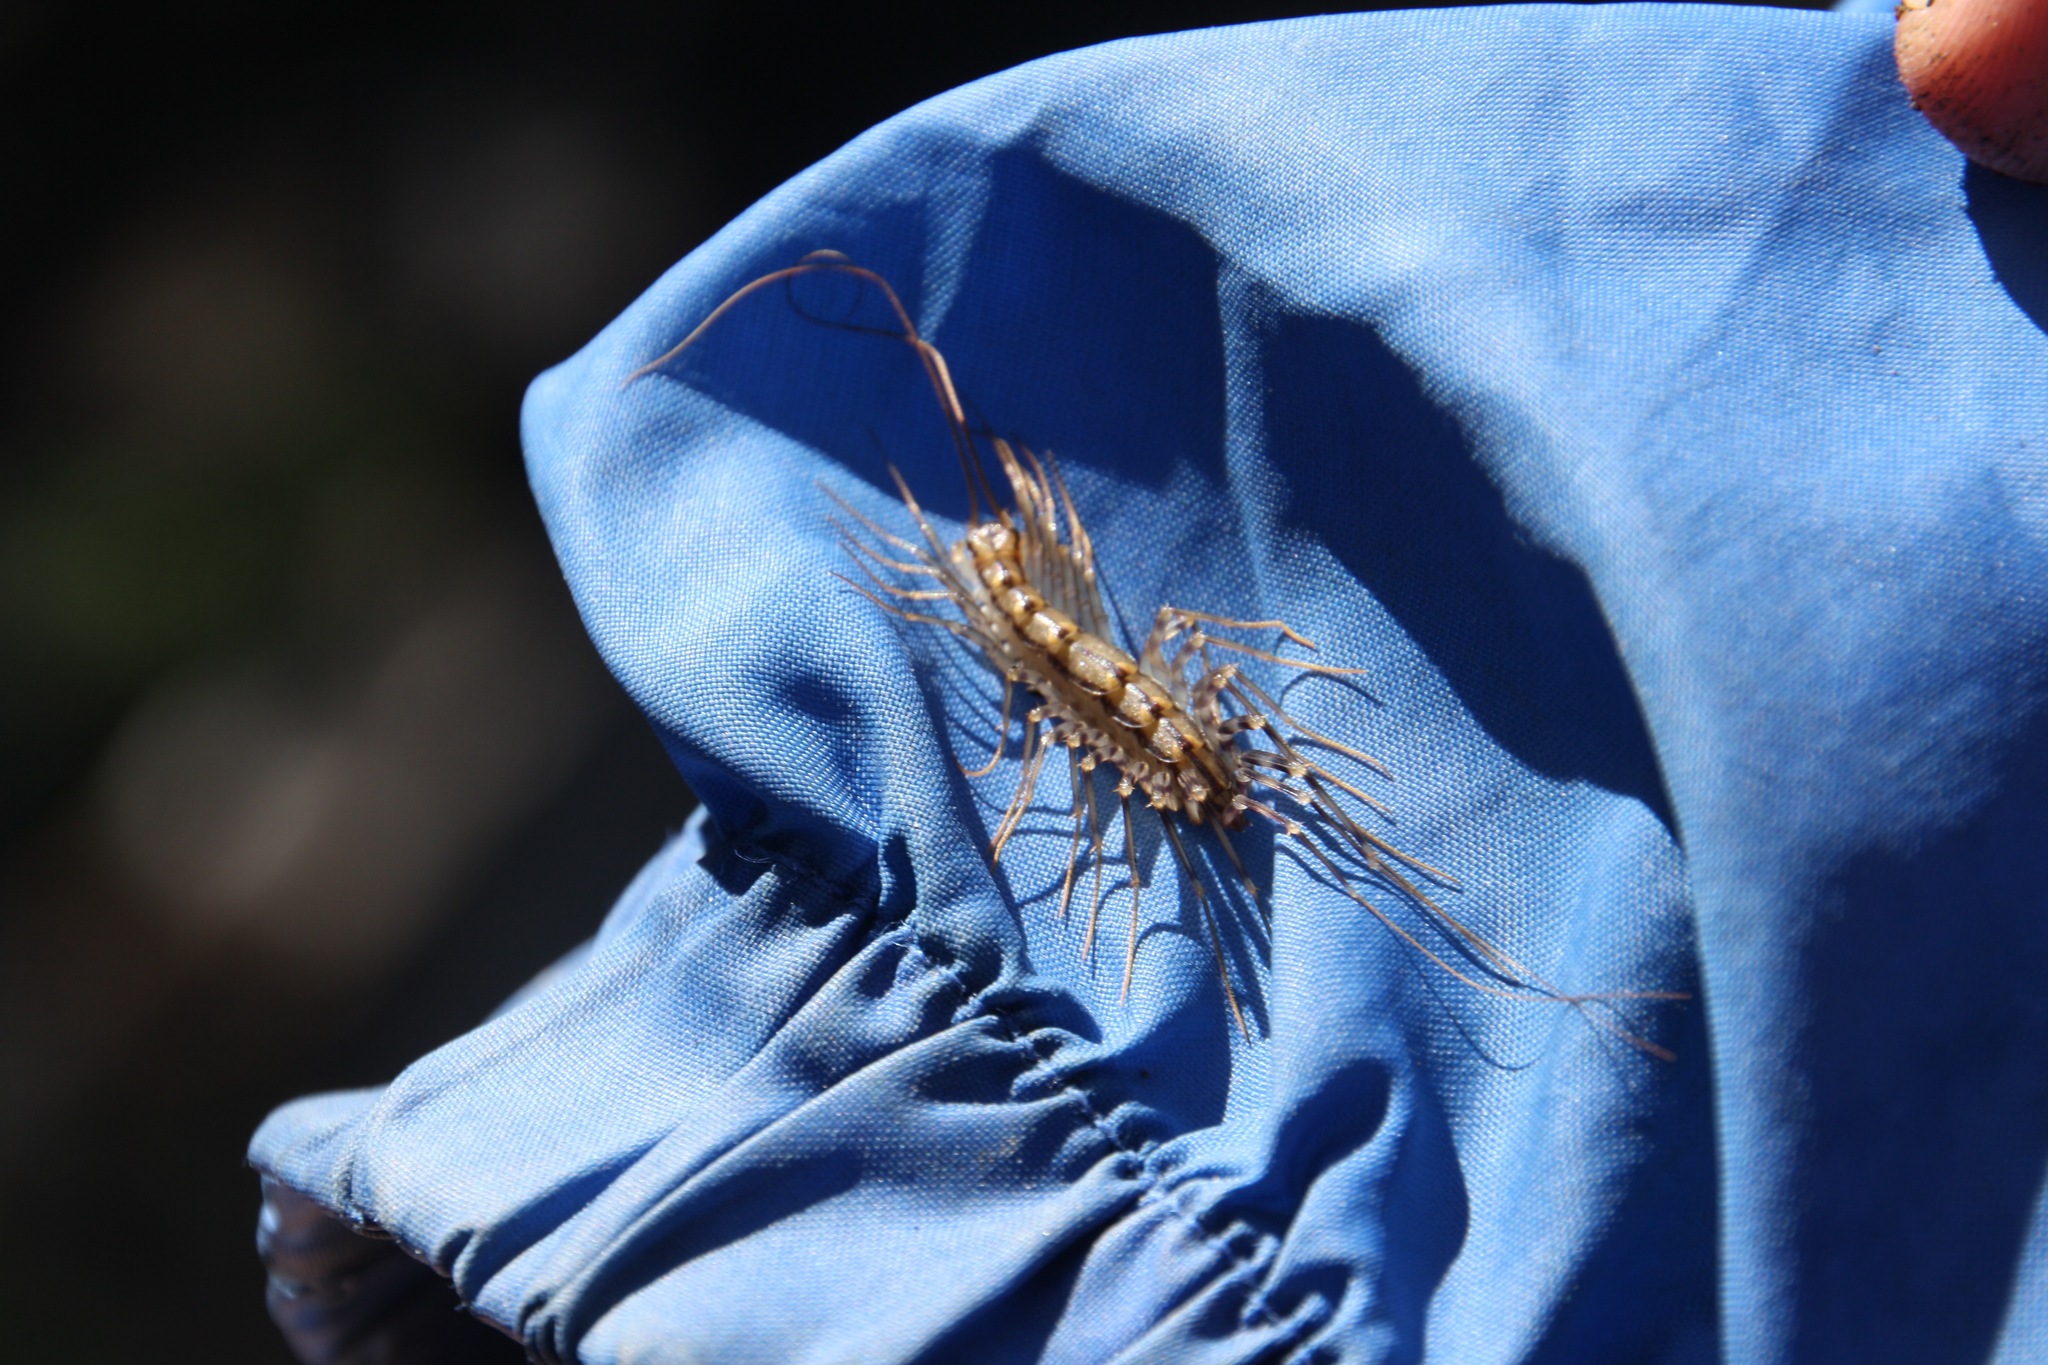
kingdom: Animalia
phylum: Arthropoda
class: Chilopoda
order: Scutigeromorpha
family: Scutigeridae
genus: Scutigera
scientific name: Scutigera coleoptrata
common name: House centipede
